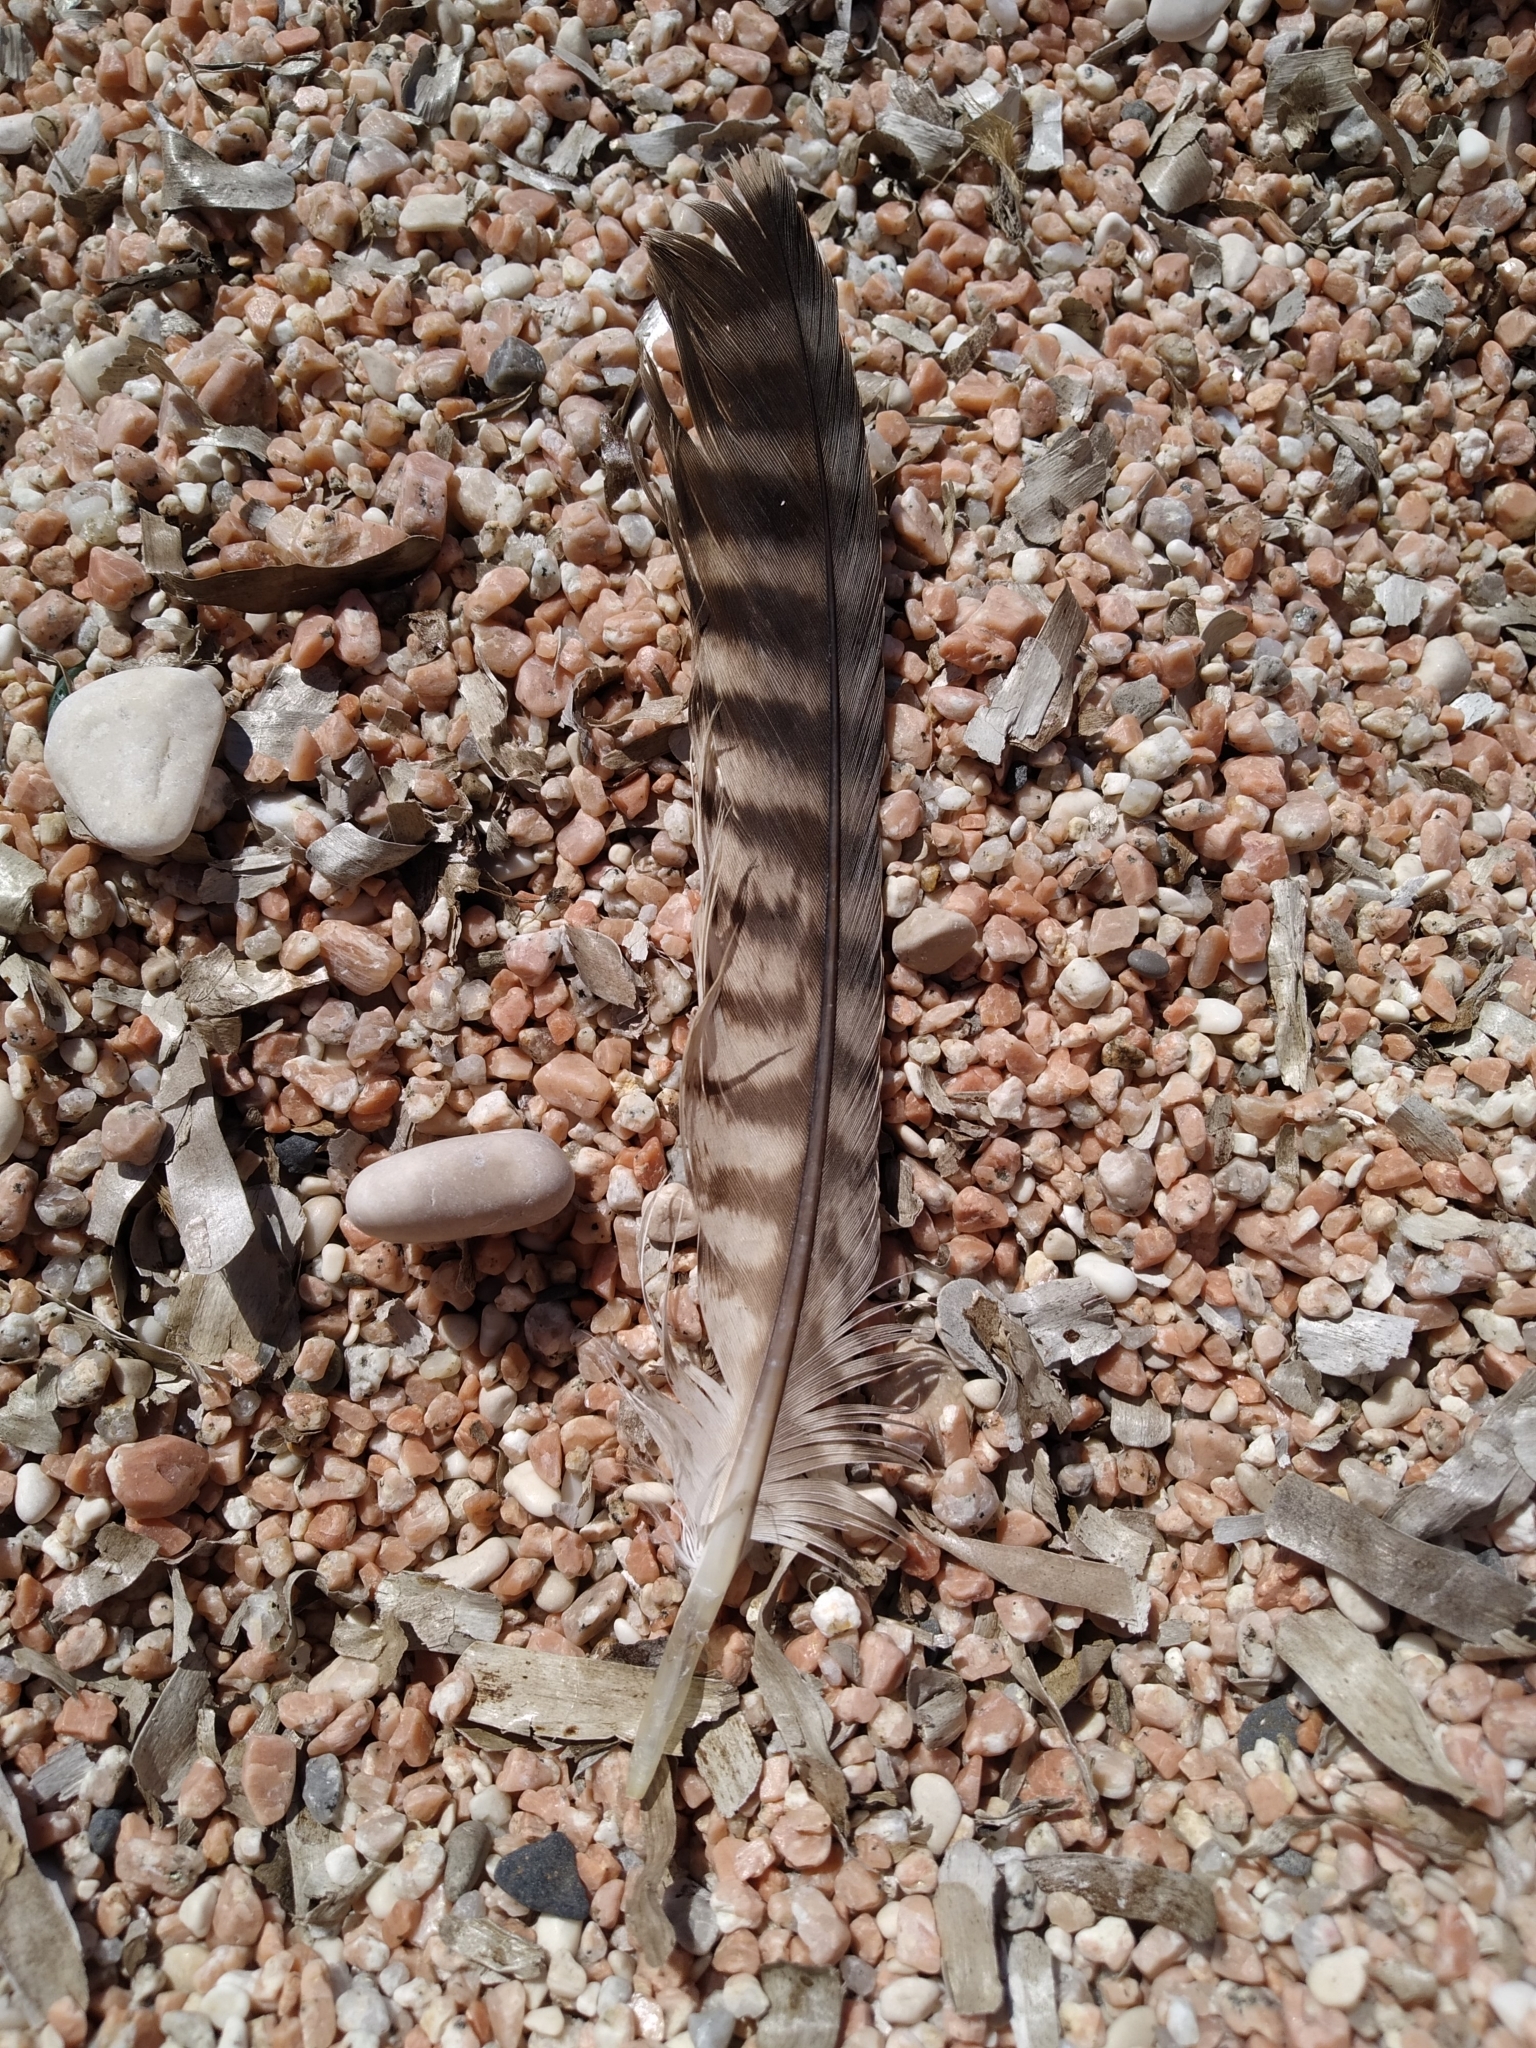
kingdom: Animalia
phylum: Chordata
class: Aves
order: Falconiformes
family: Falconidae
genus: Falco
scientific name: Falco peregrinus
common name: Peregrine falcon
